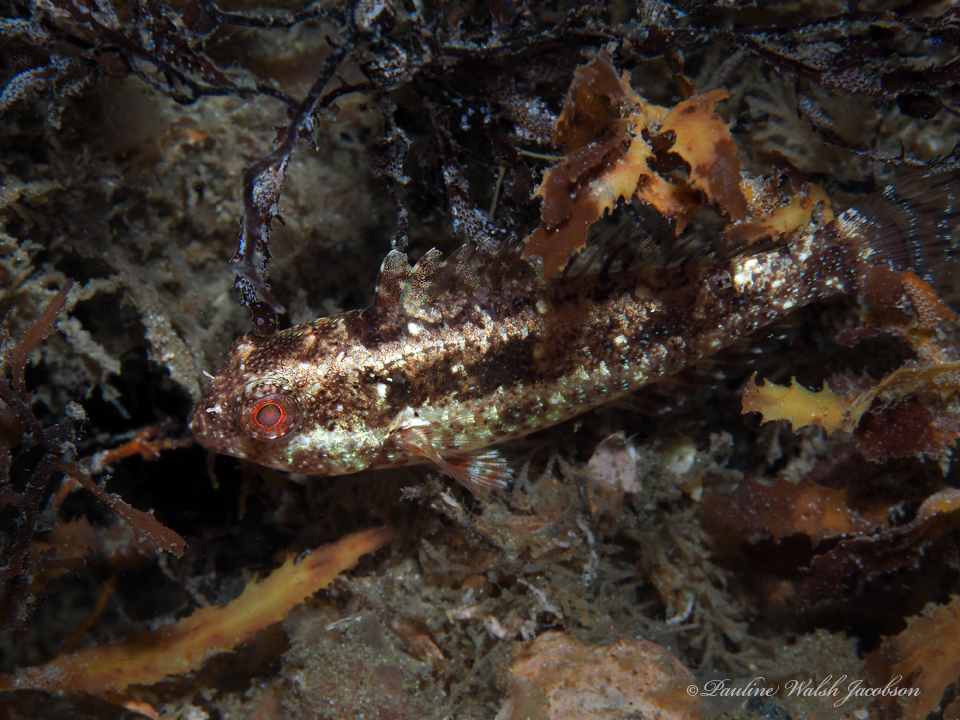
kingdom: Animalia
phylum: Chordata
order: Perciformes
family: Scaridae
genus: Sparisoma
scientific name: Sparisoma aurofrenatum
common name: Redband parrotfish
